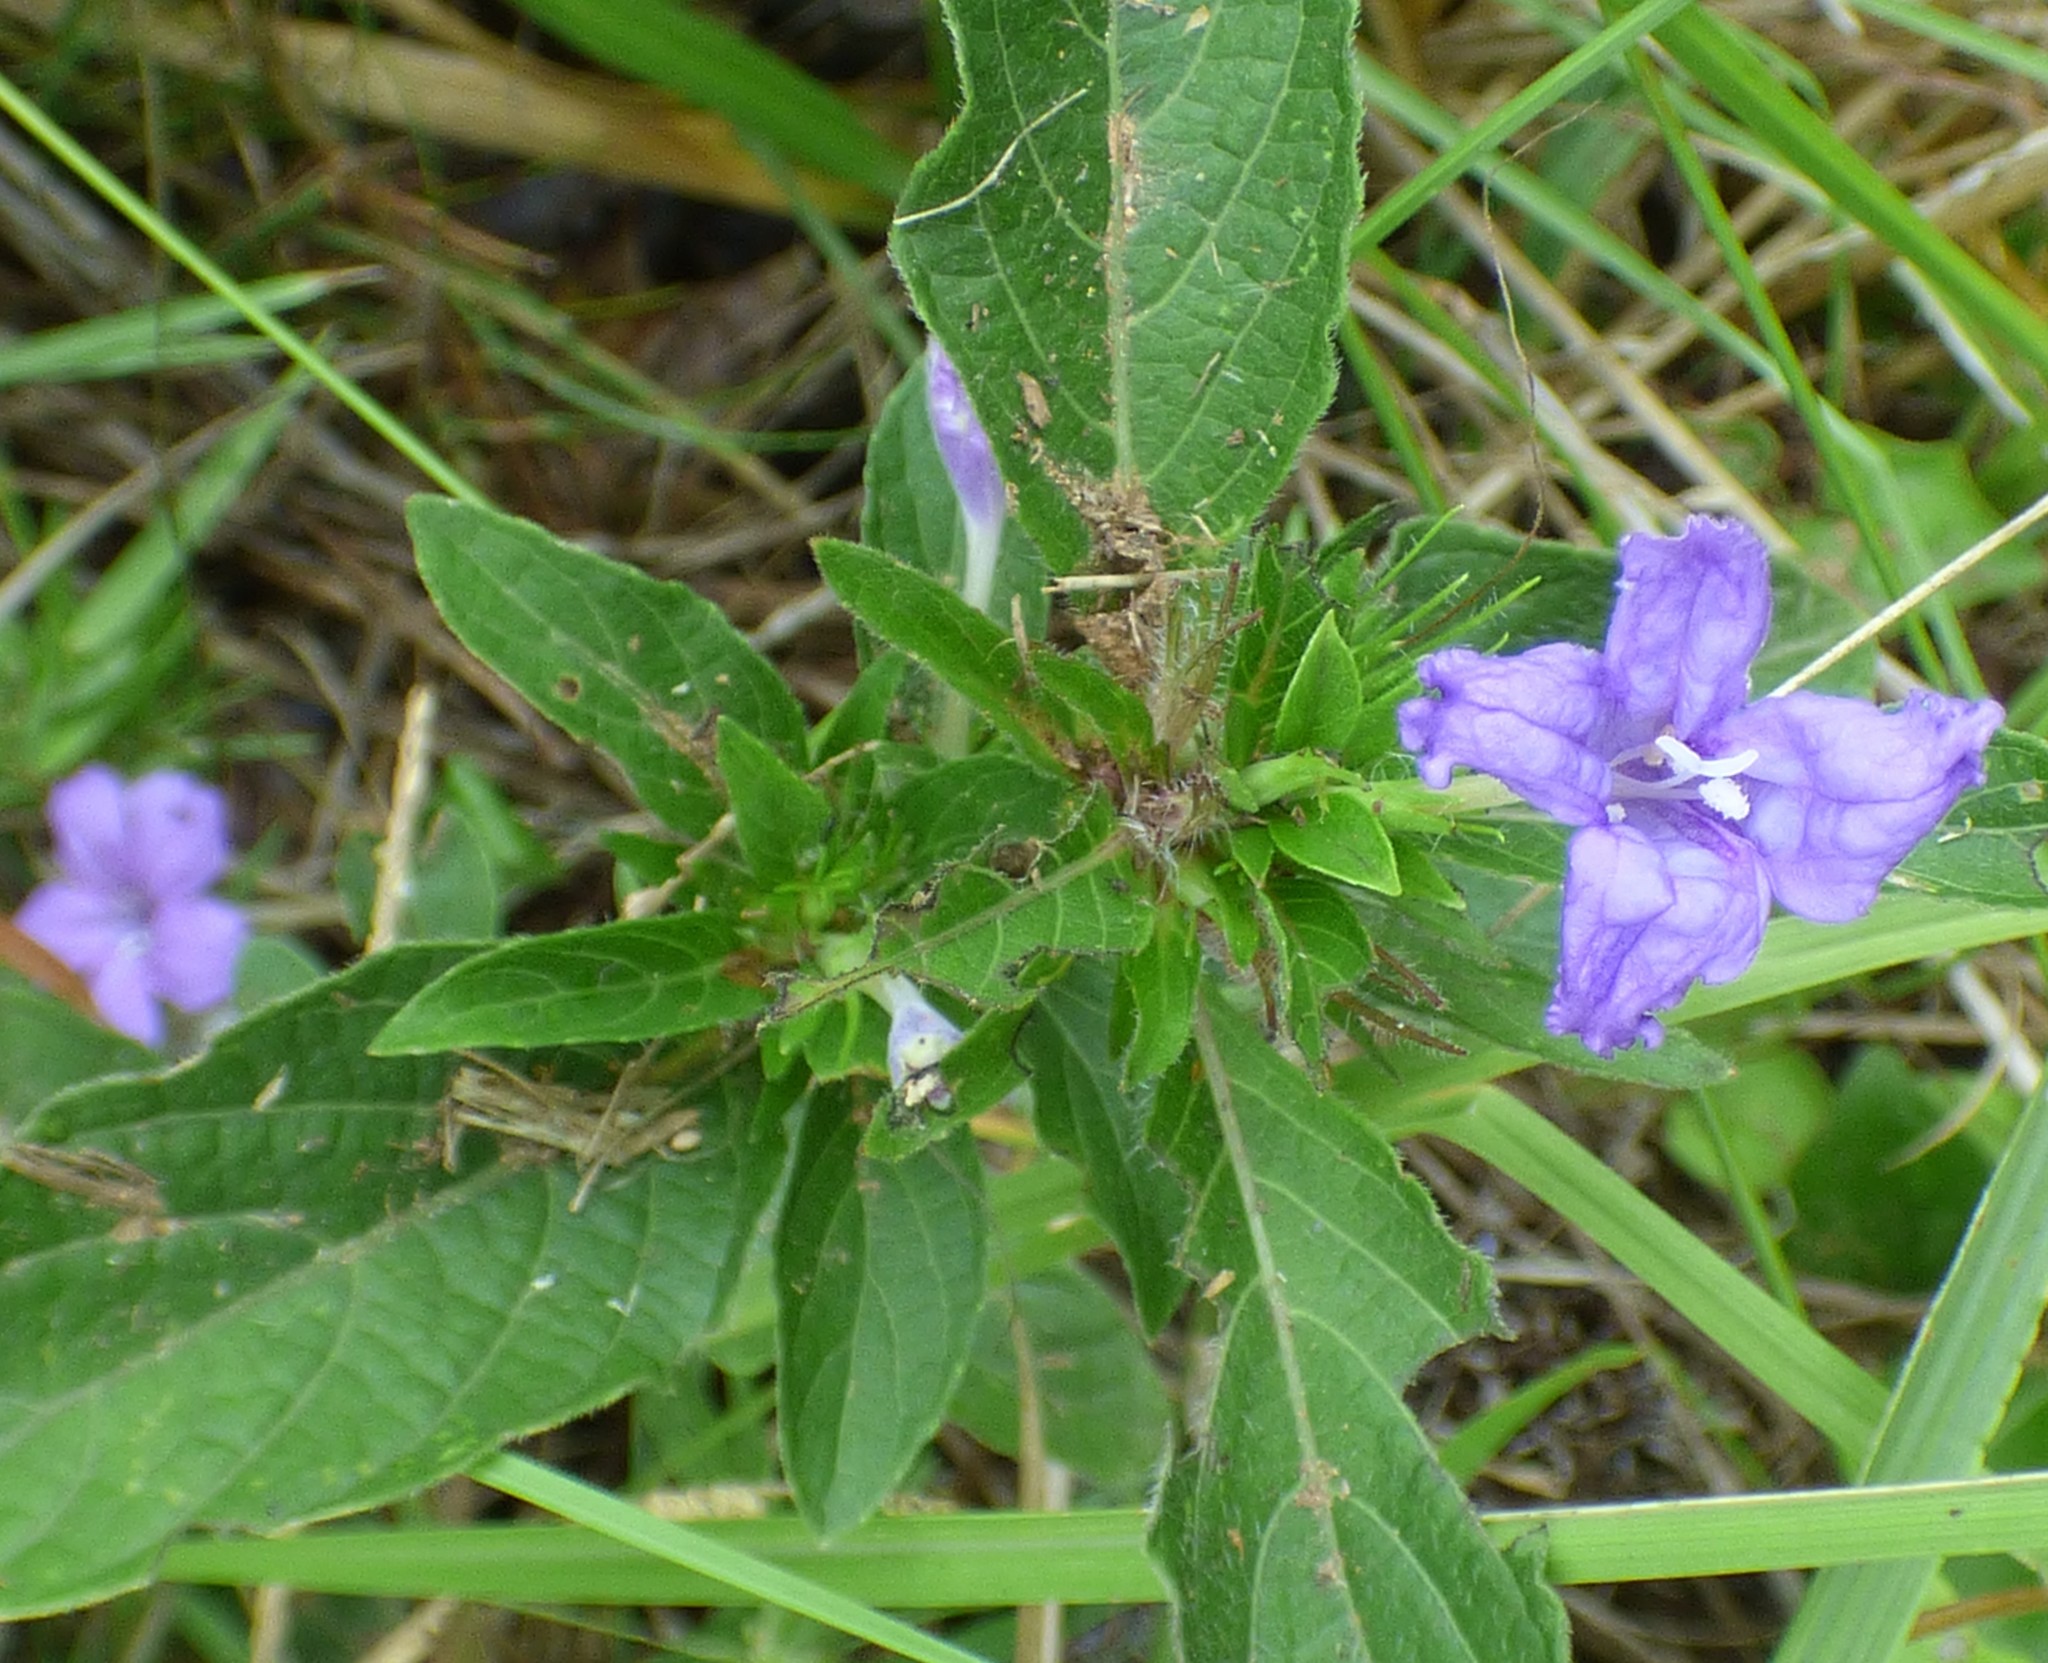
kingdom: Plantae
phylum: Tracheophyta
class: Magnoliopsida
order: Lamiales
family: Acanthaceae
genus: Ruellia
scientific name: Ruellia caroliniensis
